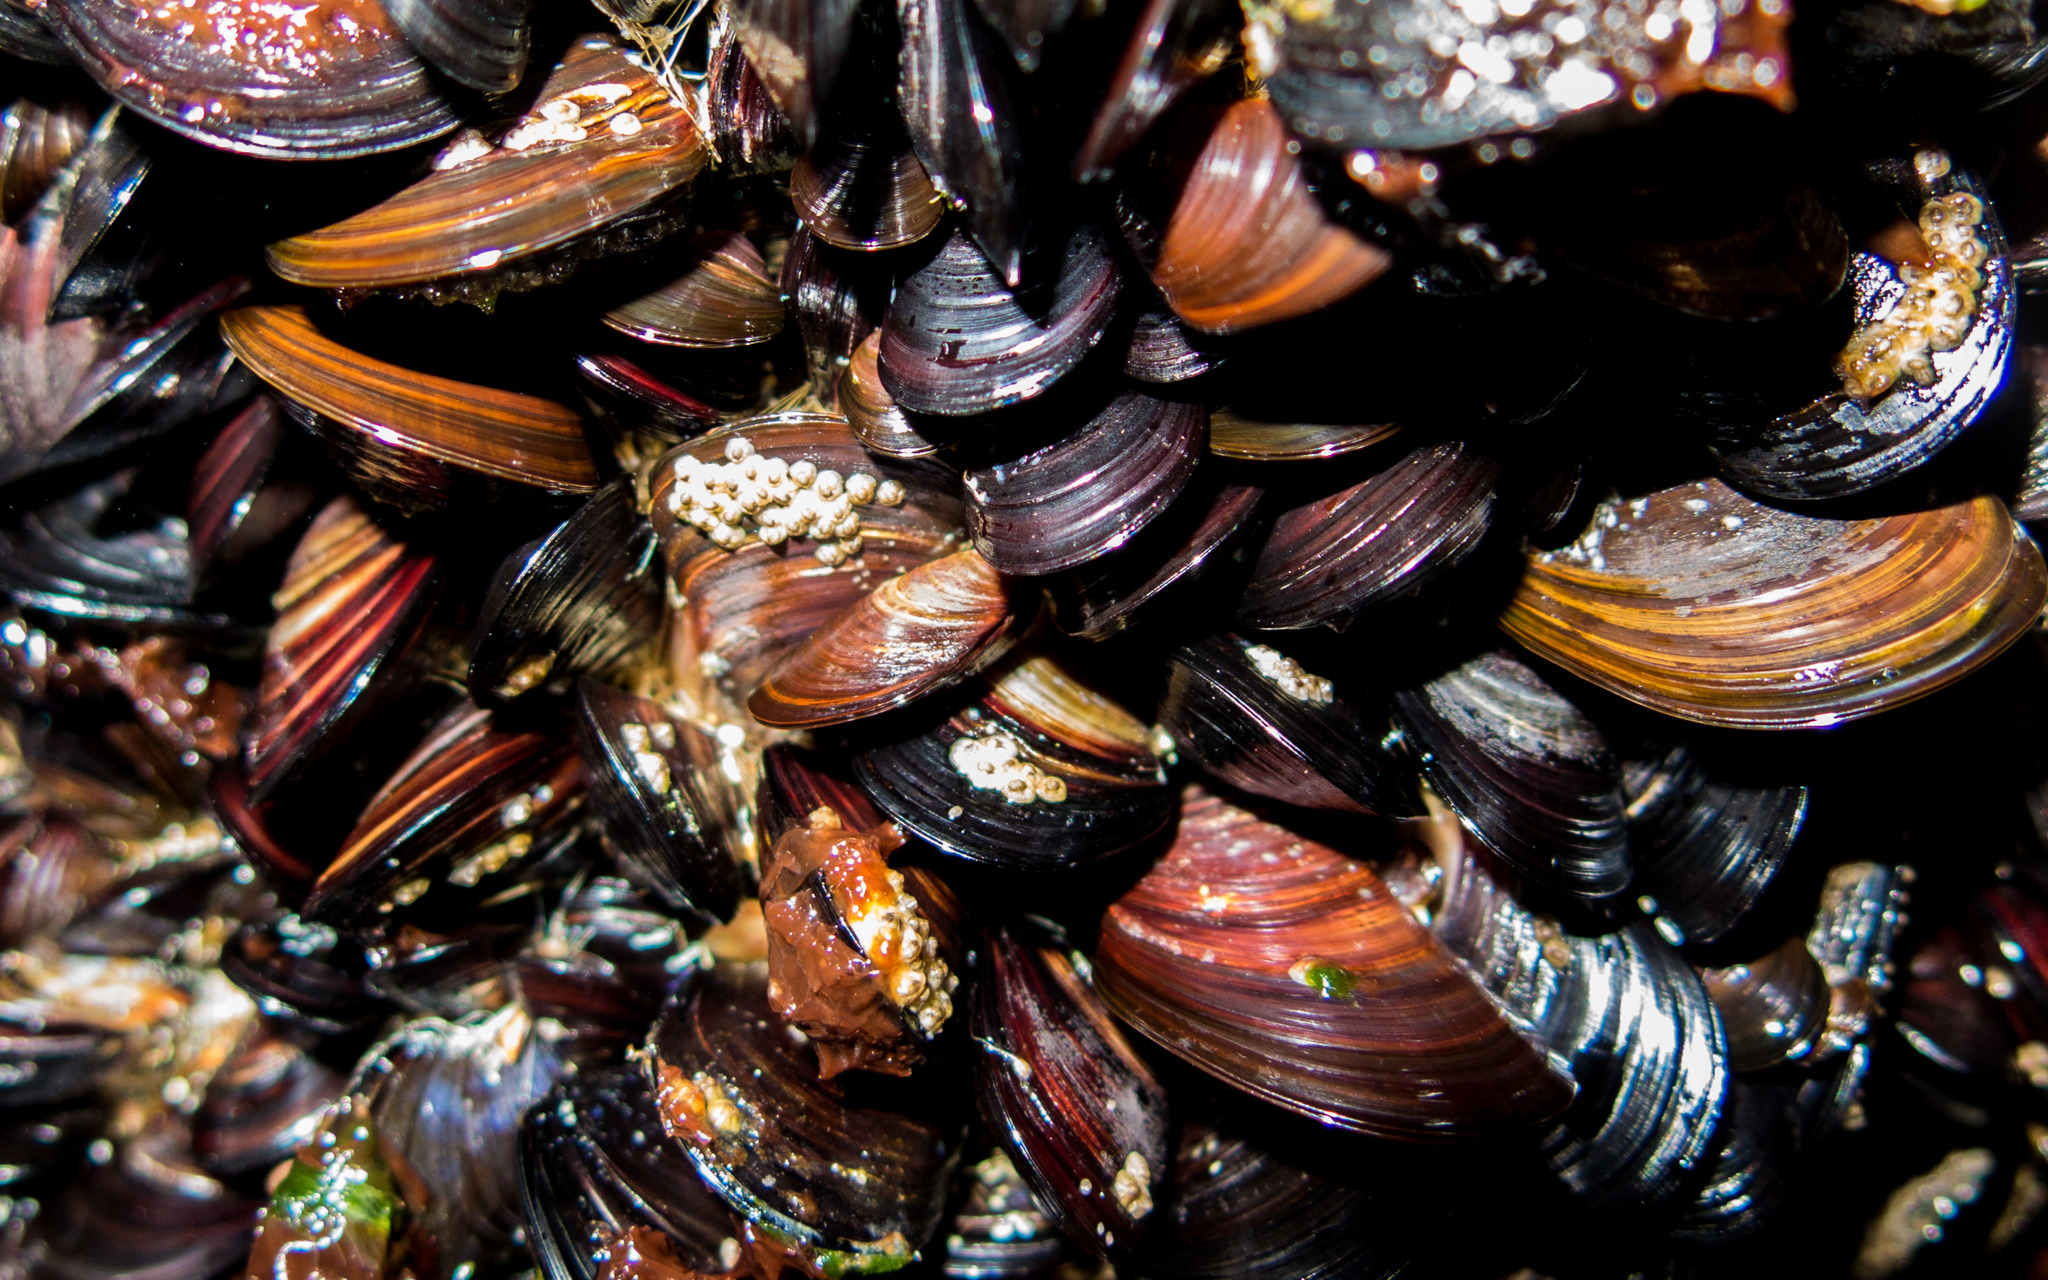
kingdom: Animalia
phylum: Mollusca
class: Bivalvia
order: Mytilida
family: Mytilidae
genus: Perna
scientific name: Perna perna
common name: Mexilhao mussel
